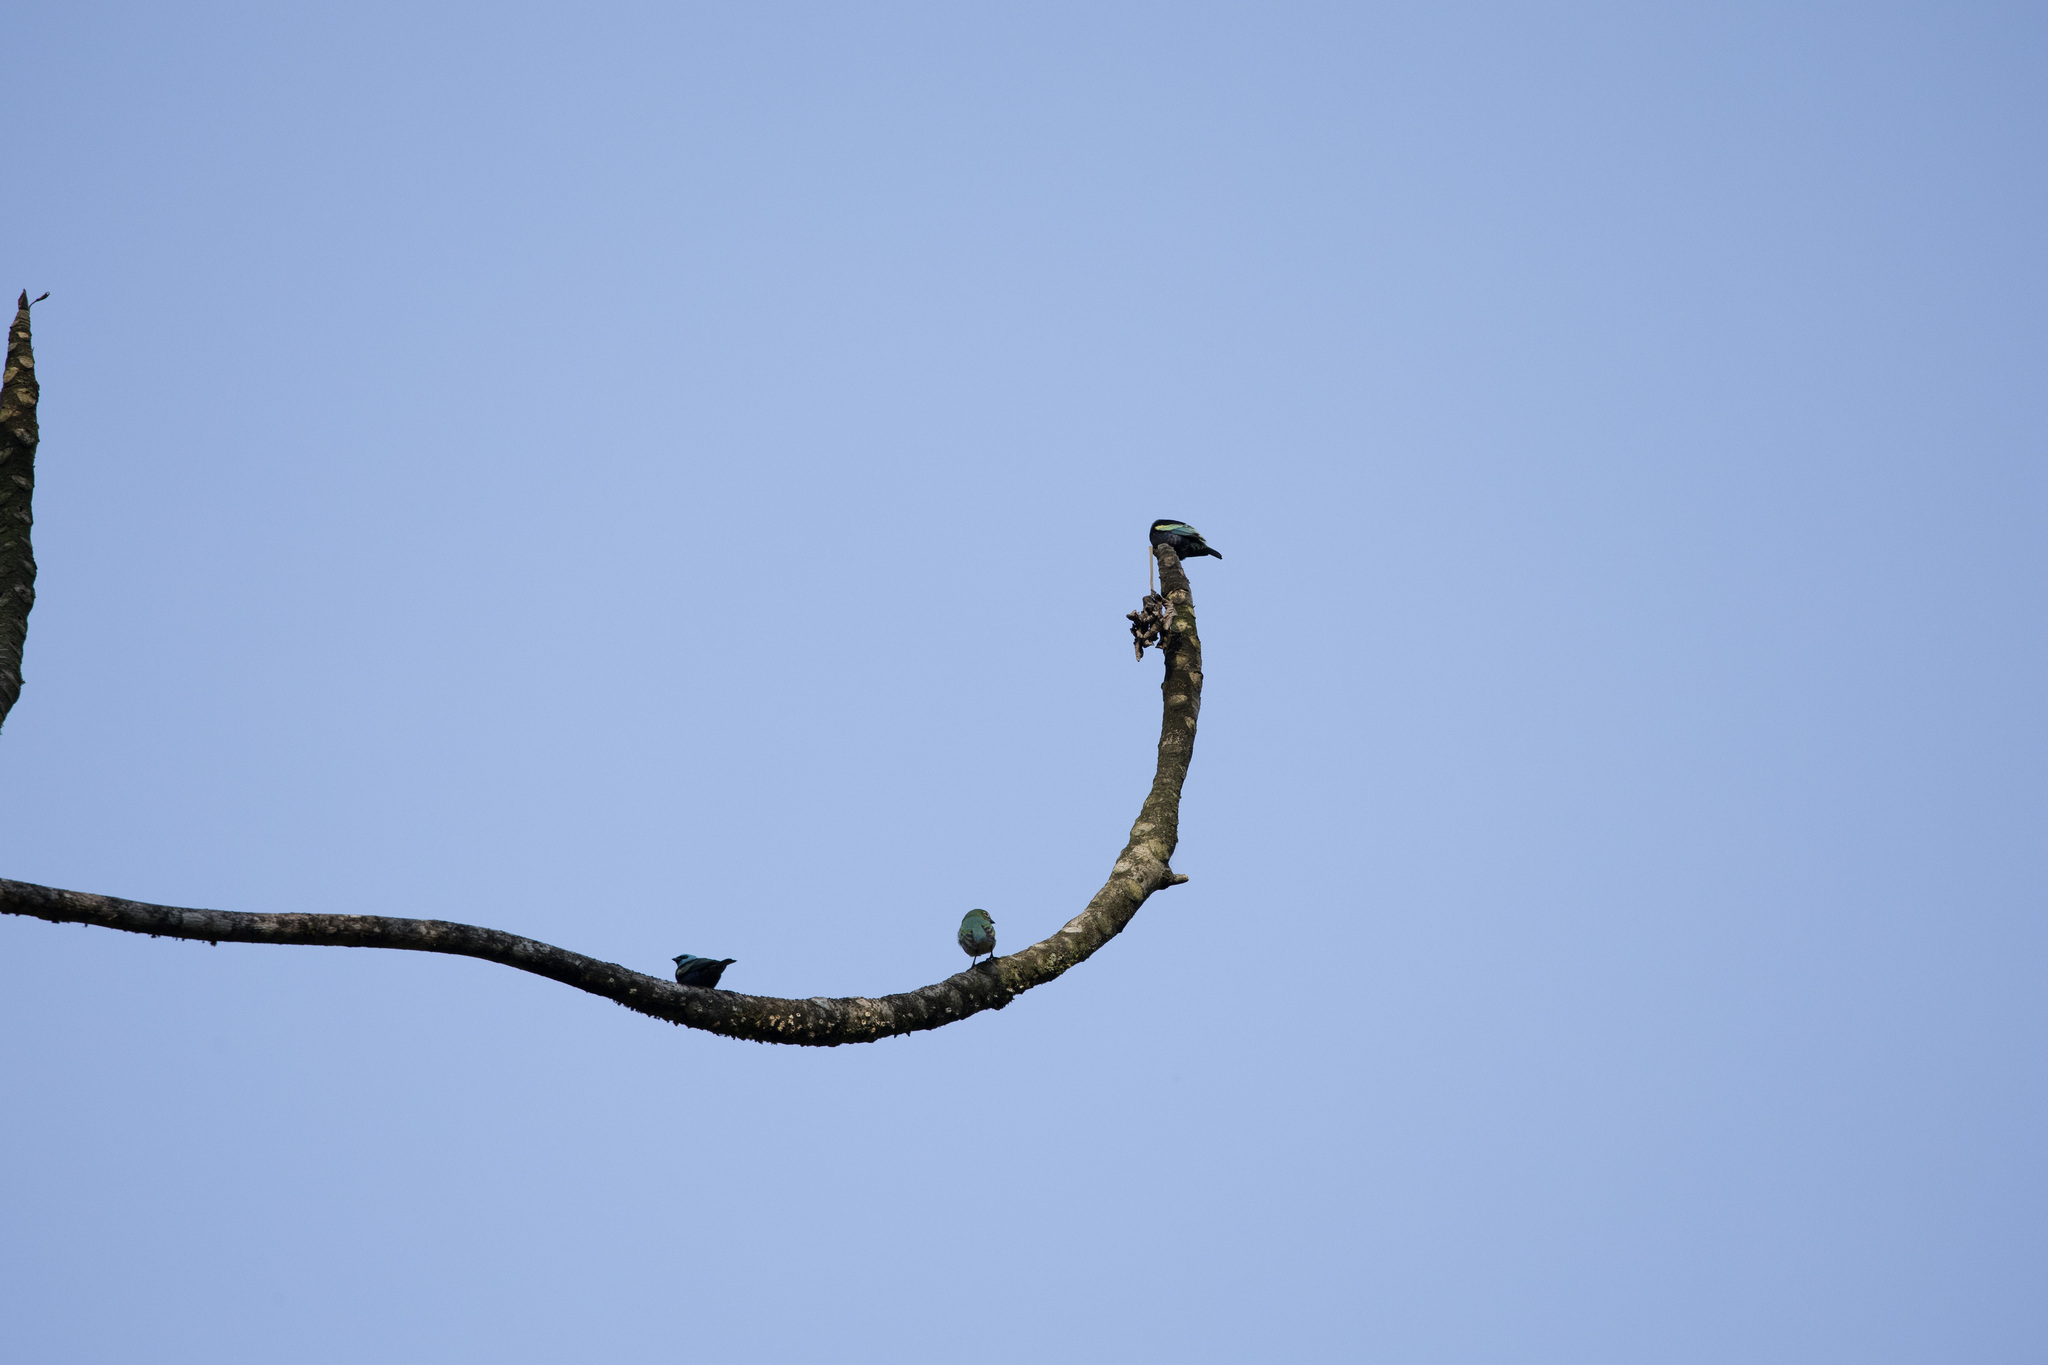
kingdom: Animalia
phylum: Chordata
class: Aves
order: Passeriformes
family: Thraupidae
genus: Tersina
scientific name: Tersina viridis
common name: Swallow tanager
